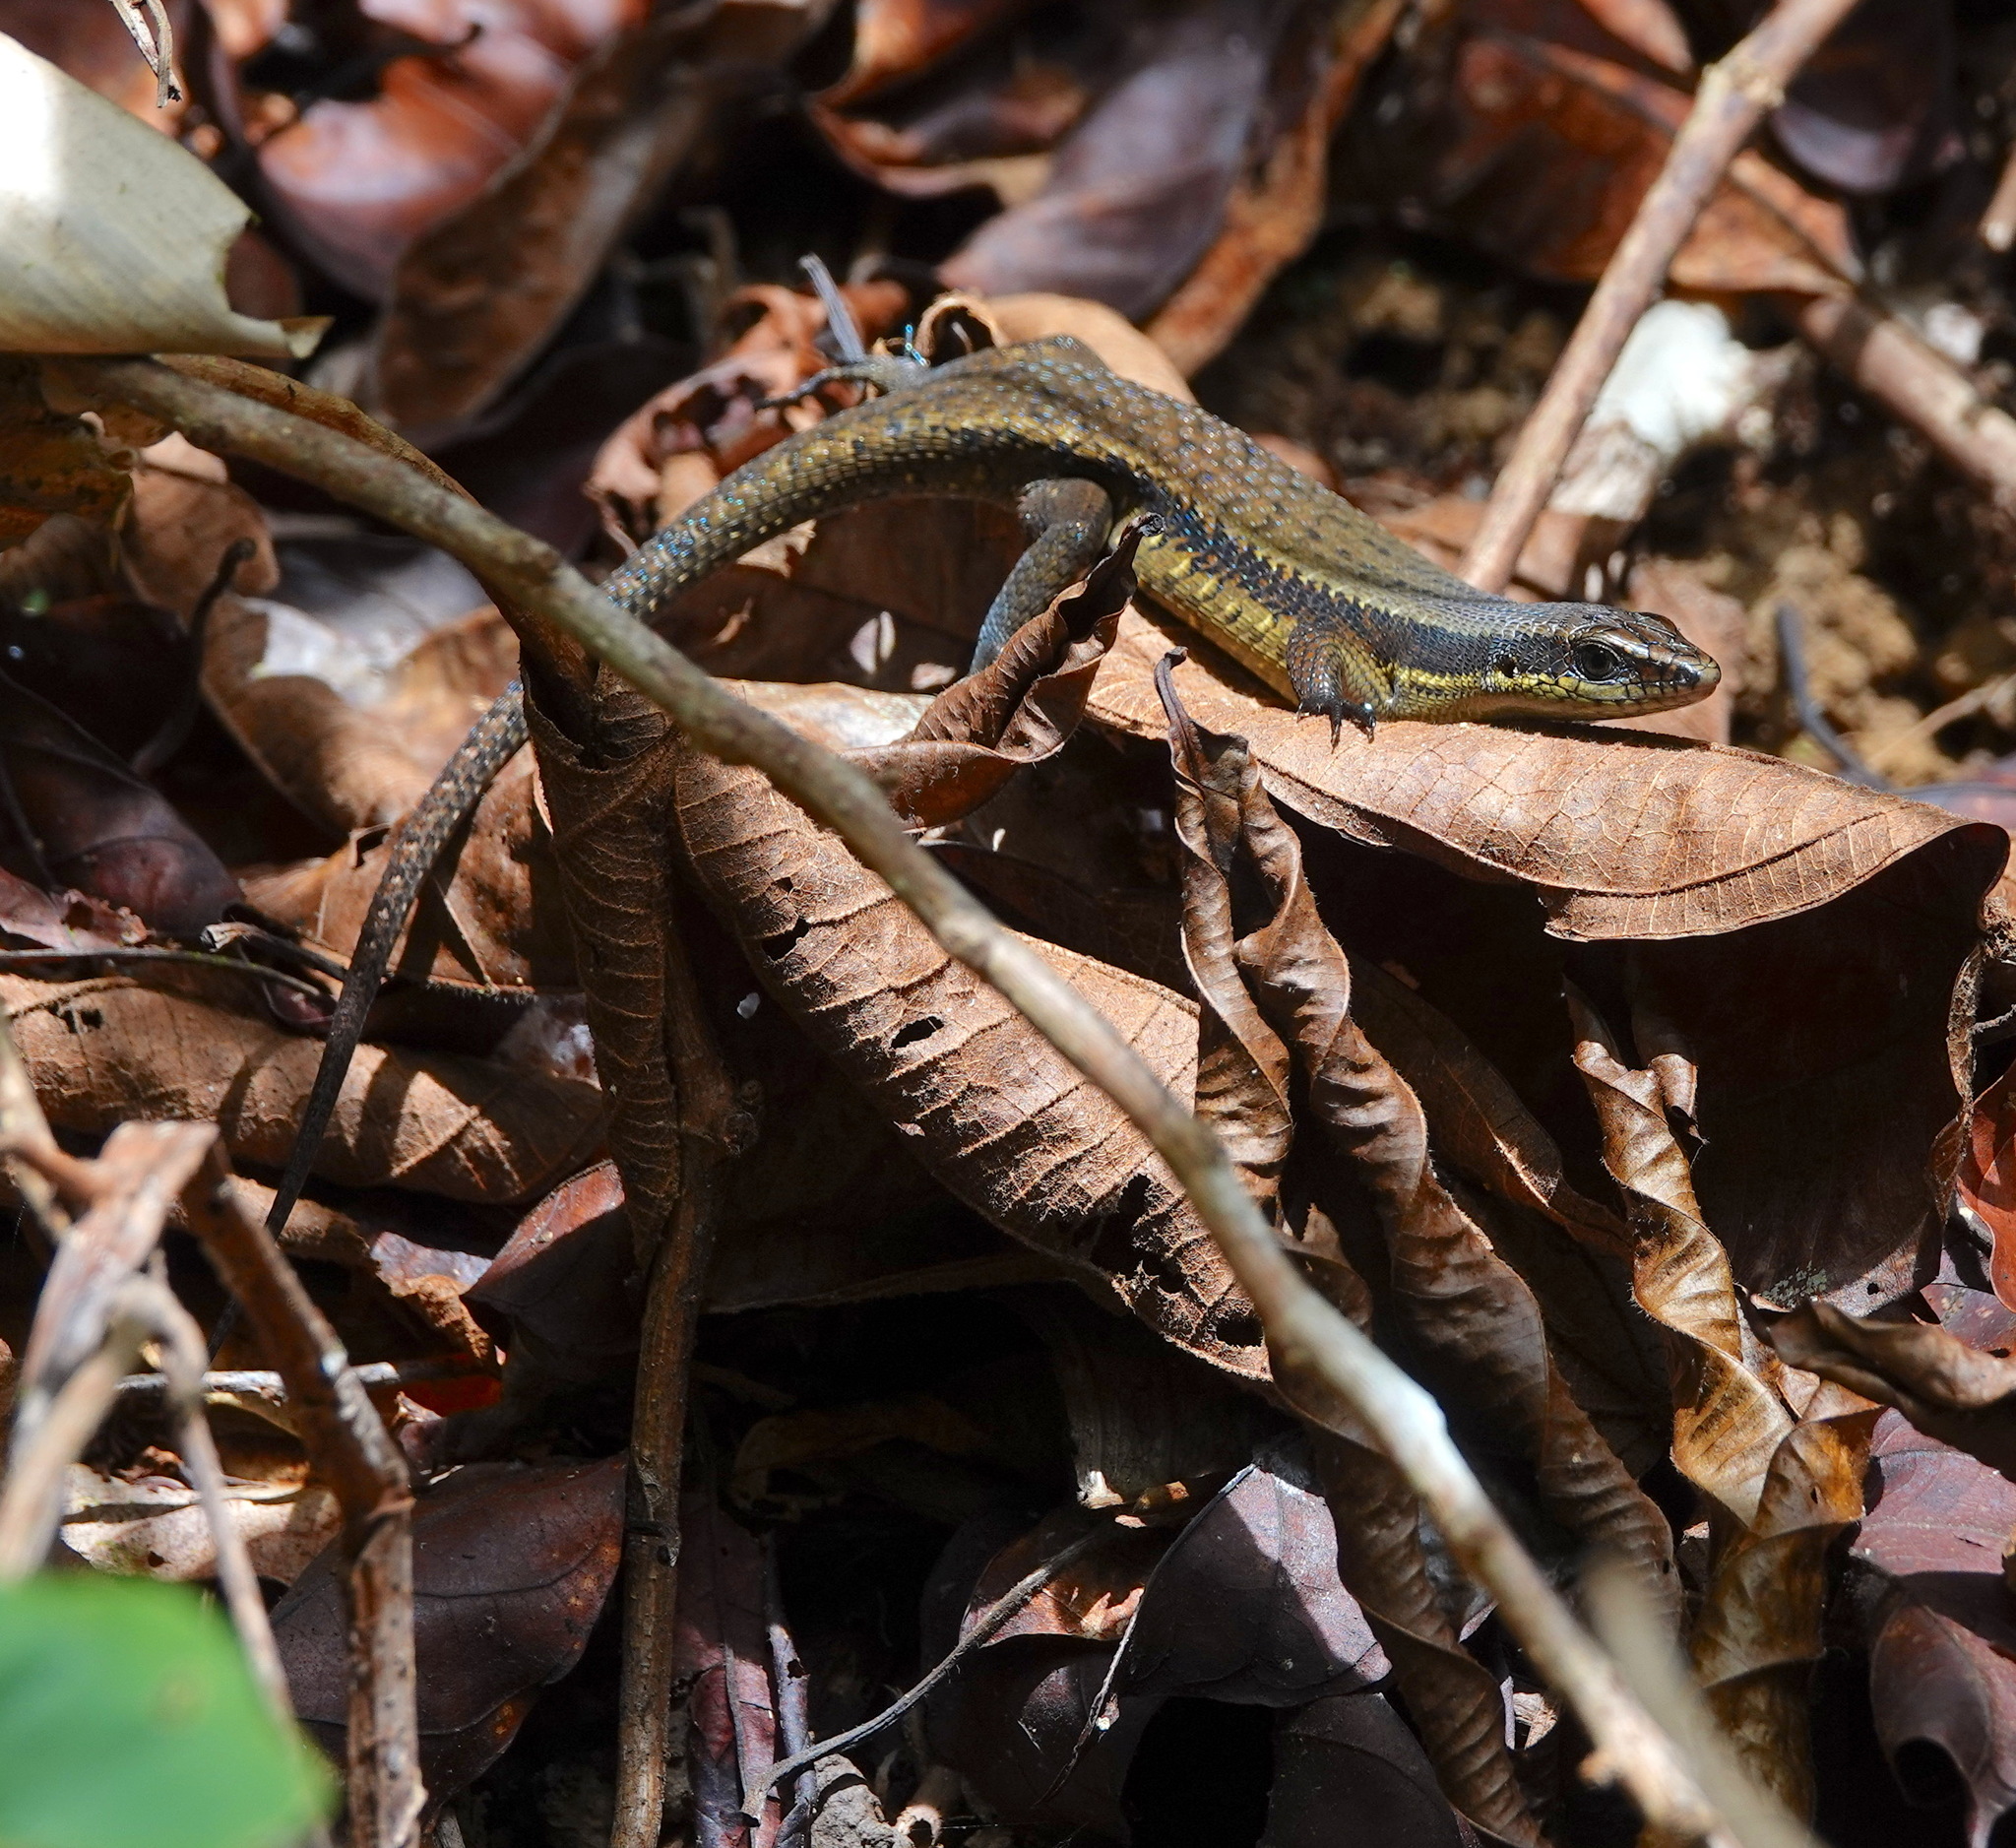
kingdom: Animalia
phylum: Chordata
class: Squamata
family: Scincidae
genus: Eutropis
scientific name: Eutropis rudis
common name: Rough mabuya
